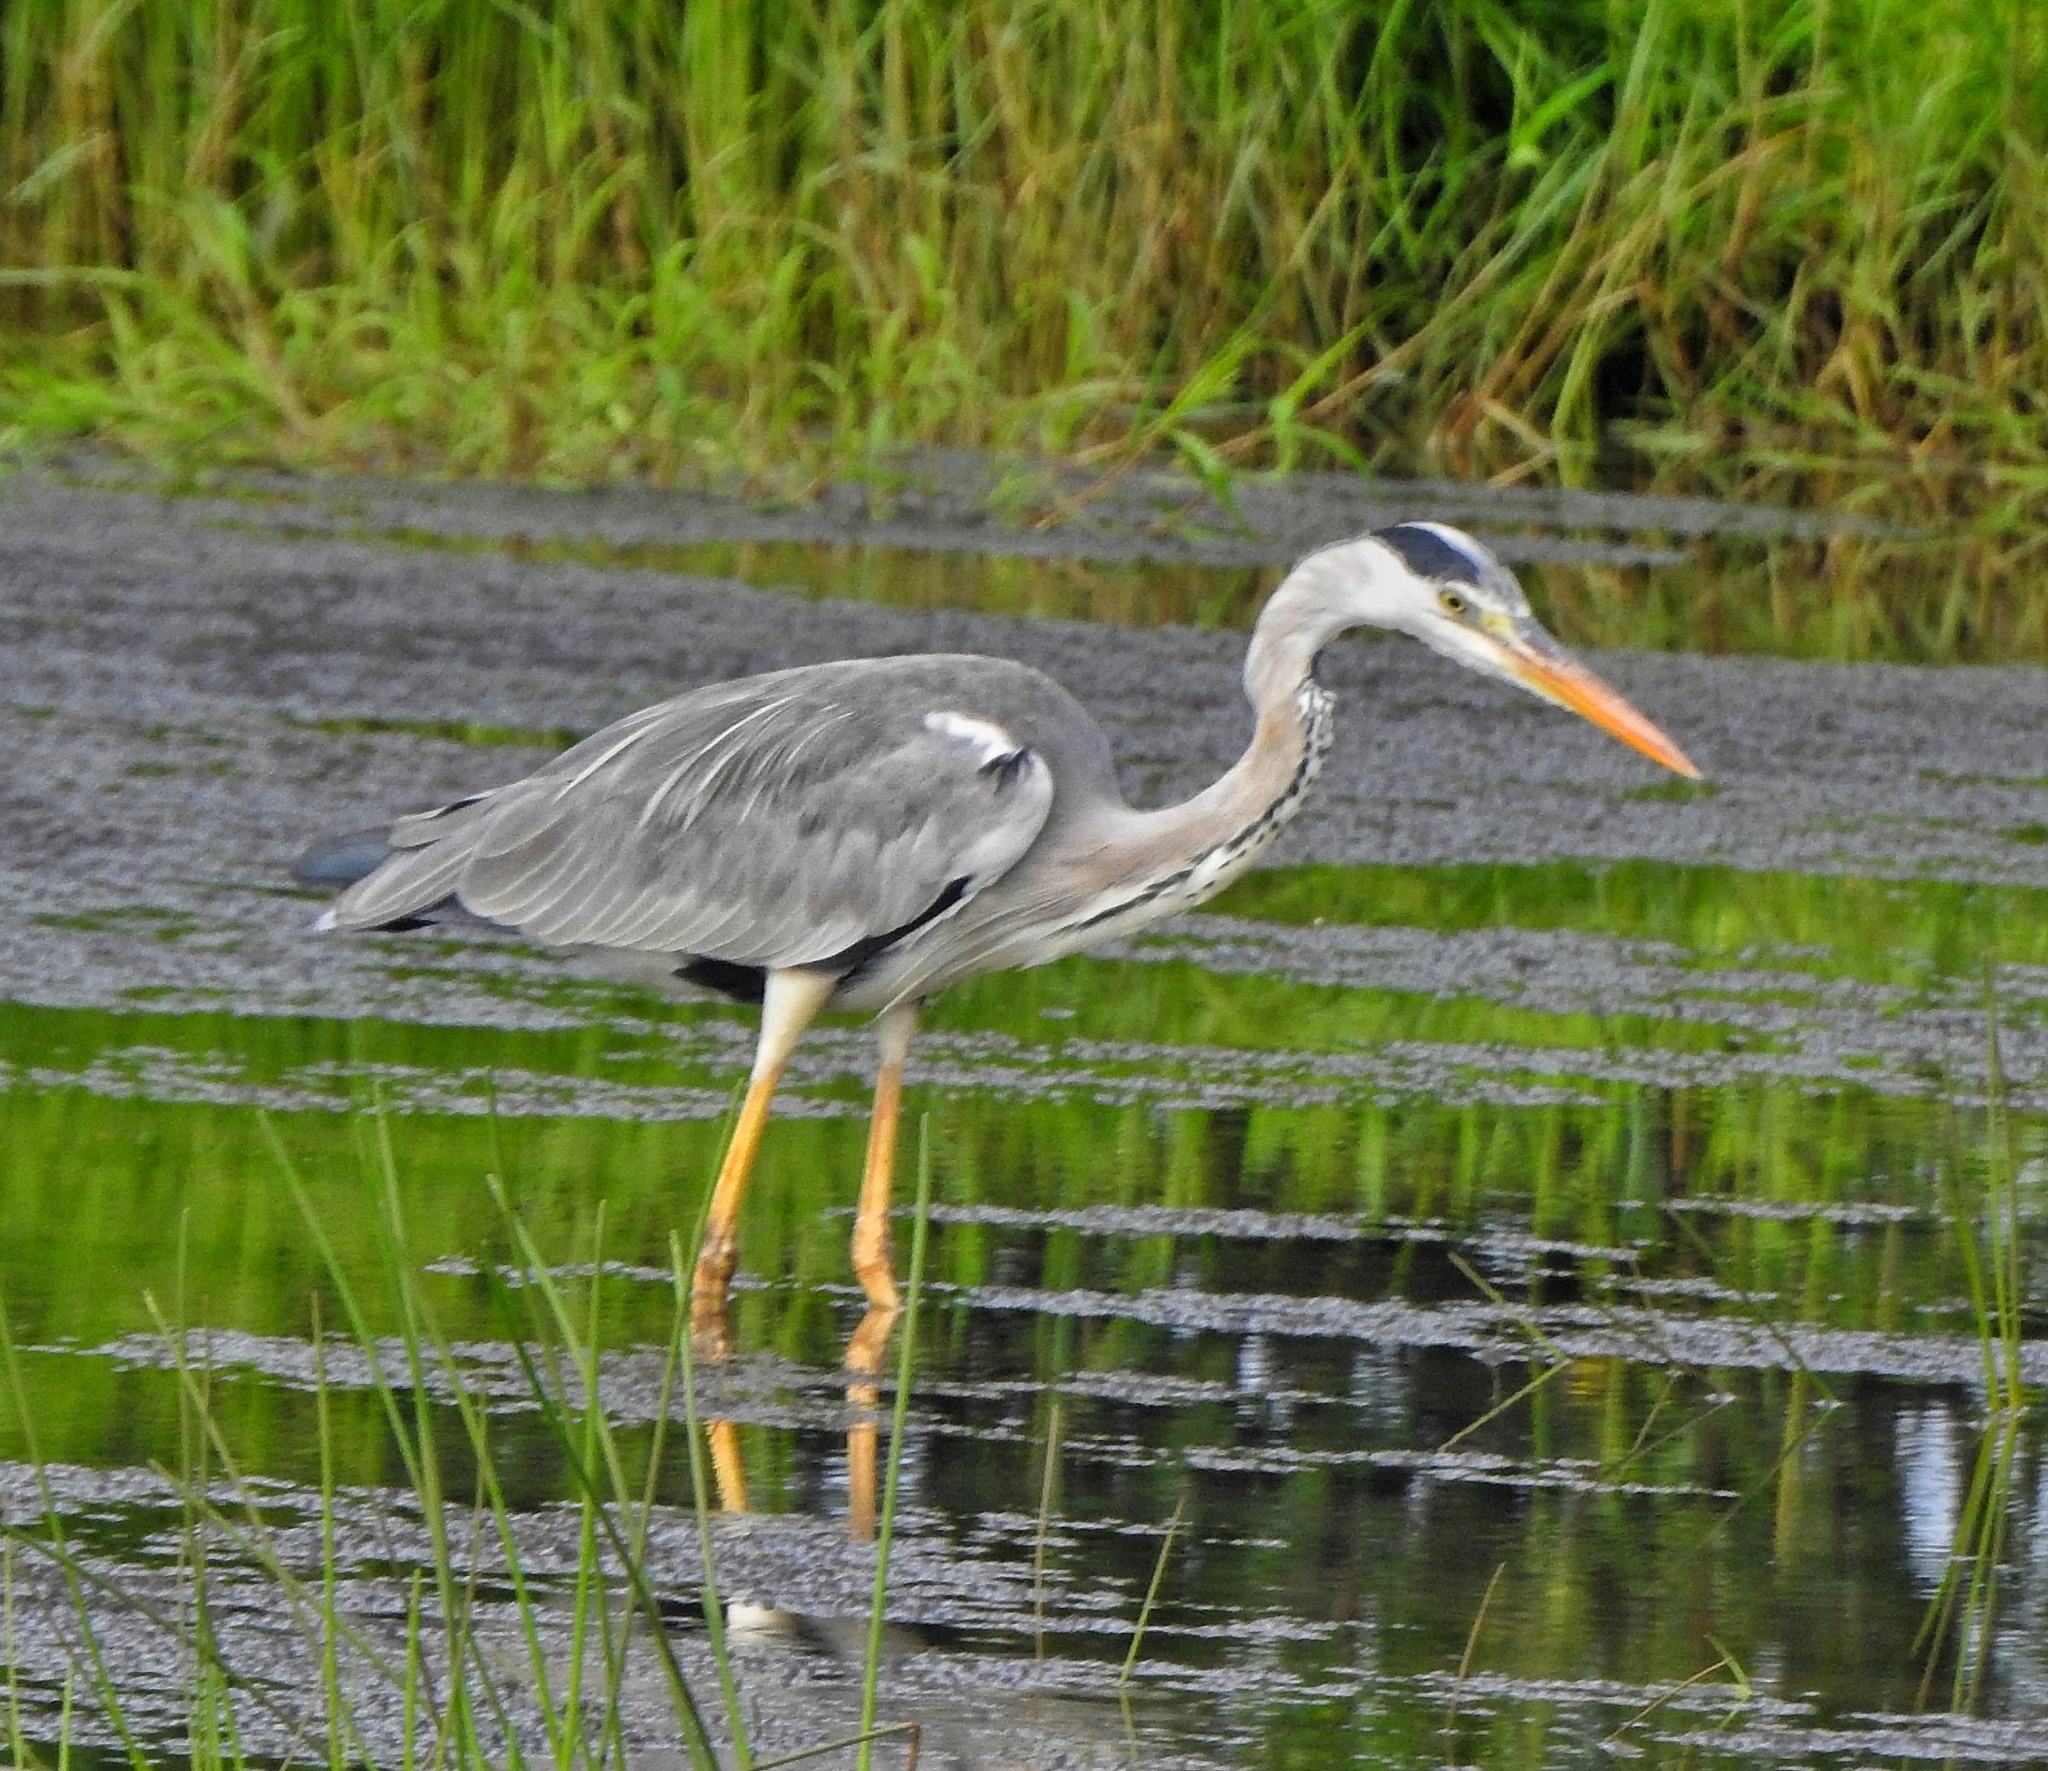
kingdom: Animalia
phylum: Chordata
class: Aves
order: Pelecaniformes
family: Ardeidae
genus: Ardea
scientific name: Ardea cinerea
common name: Grey heron
